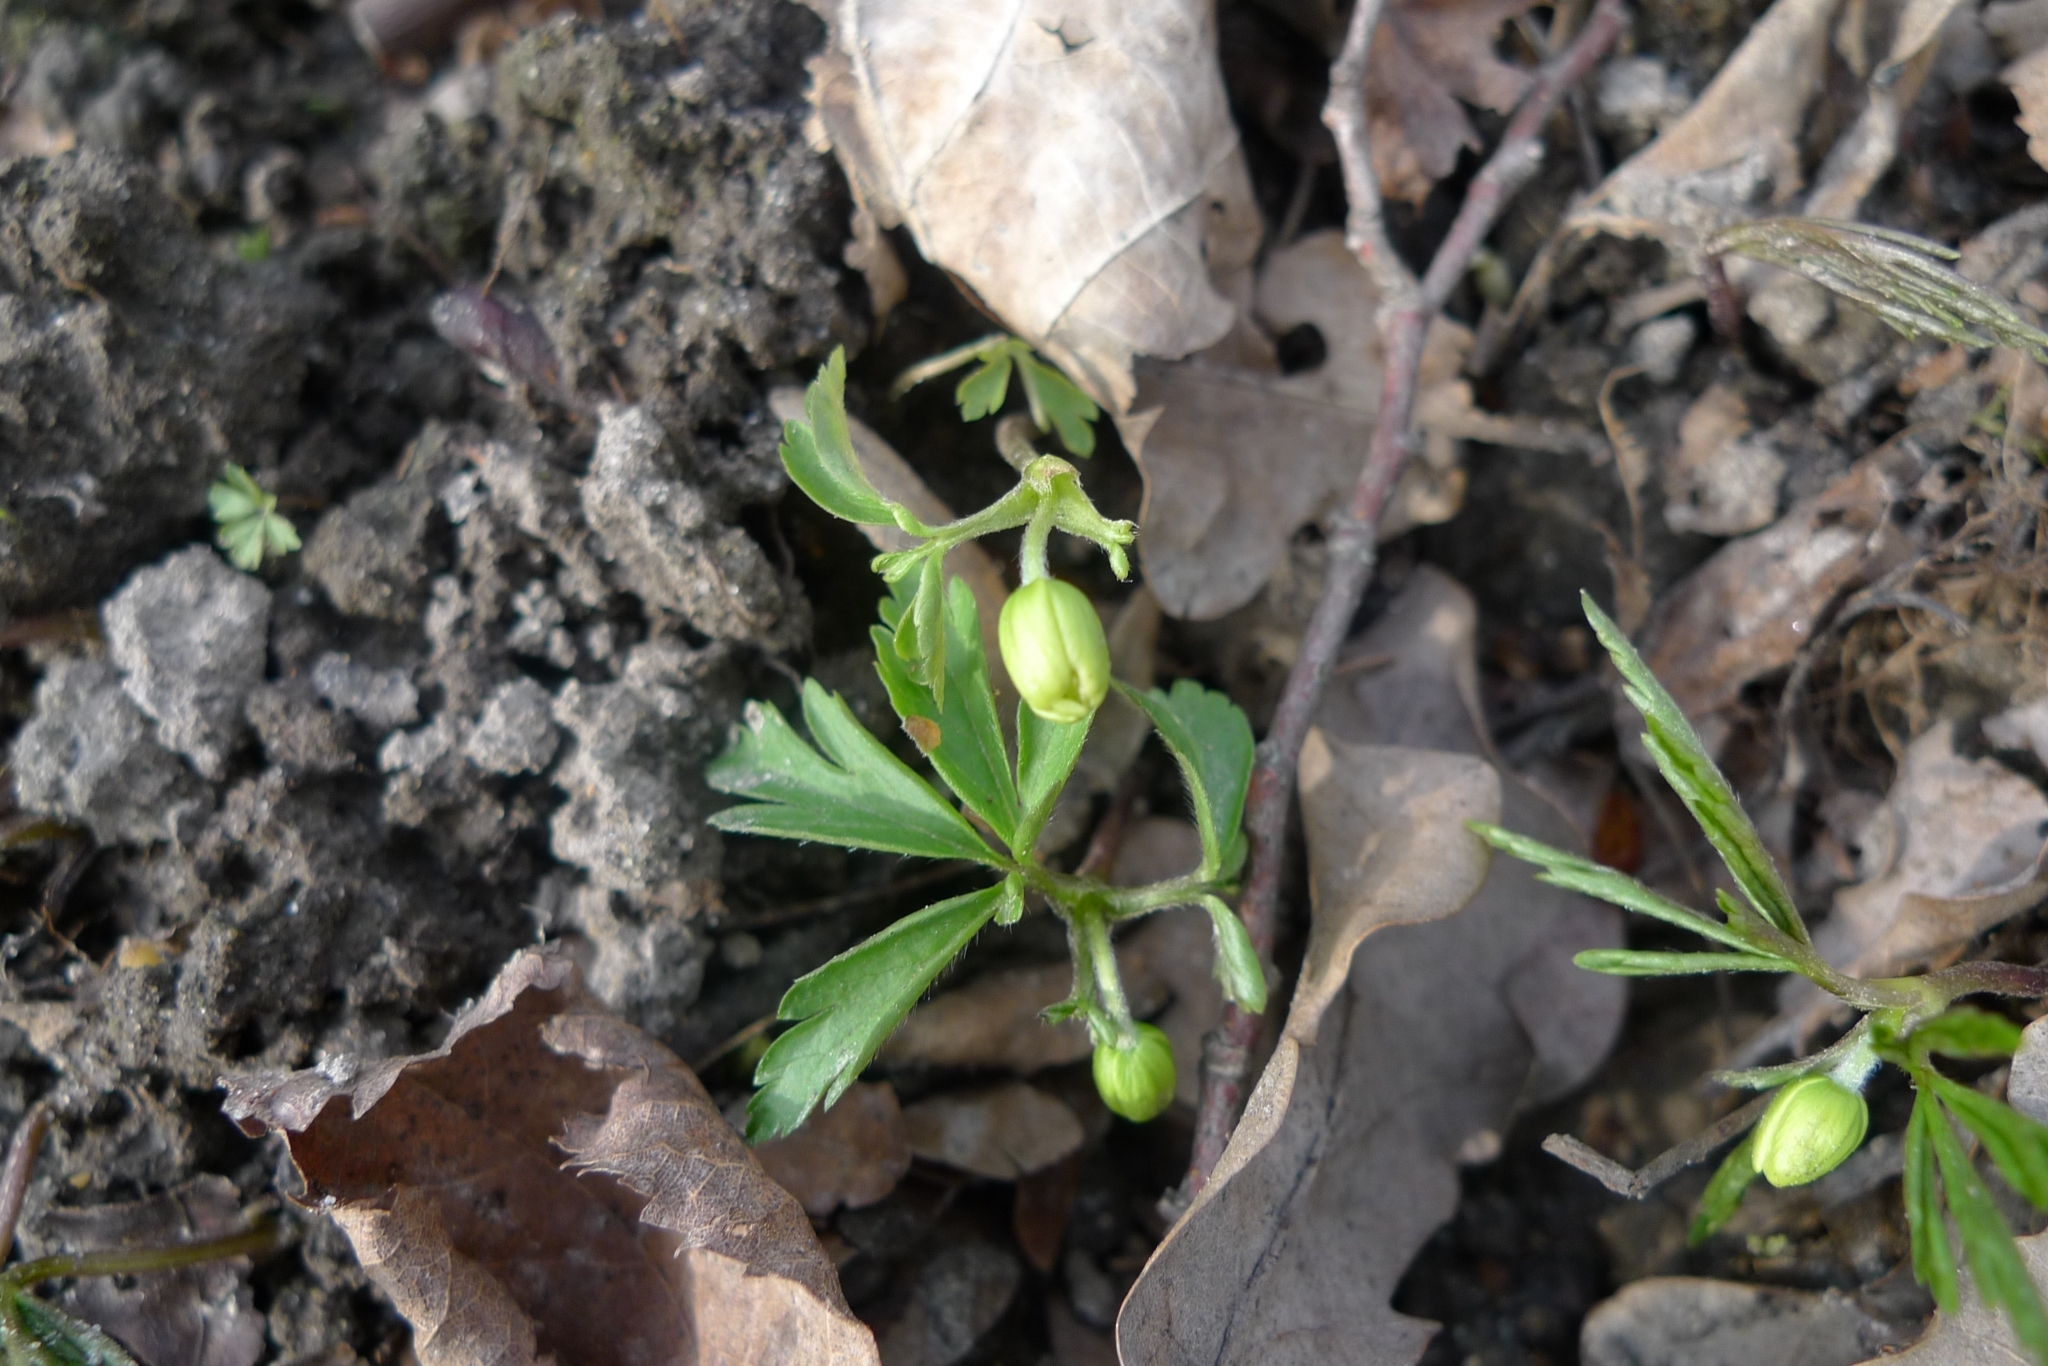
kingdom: Plantae
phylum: Tracheophyta
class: Magnoliopsida
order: Ranunculales
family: Ranunculaceae
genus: Anemone
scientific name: Anemone nemorosa
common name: Wood anemone
